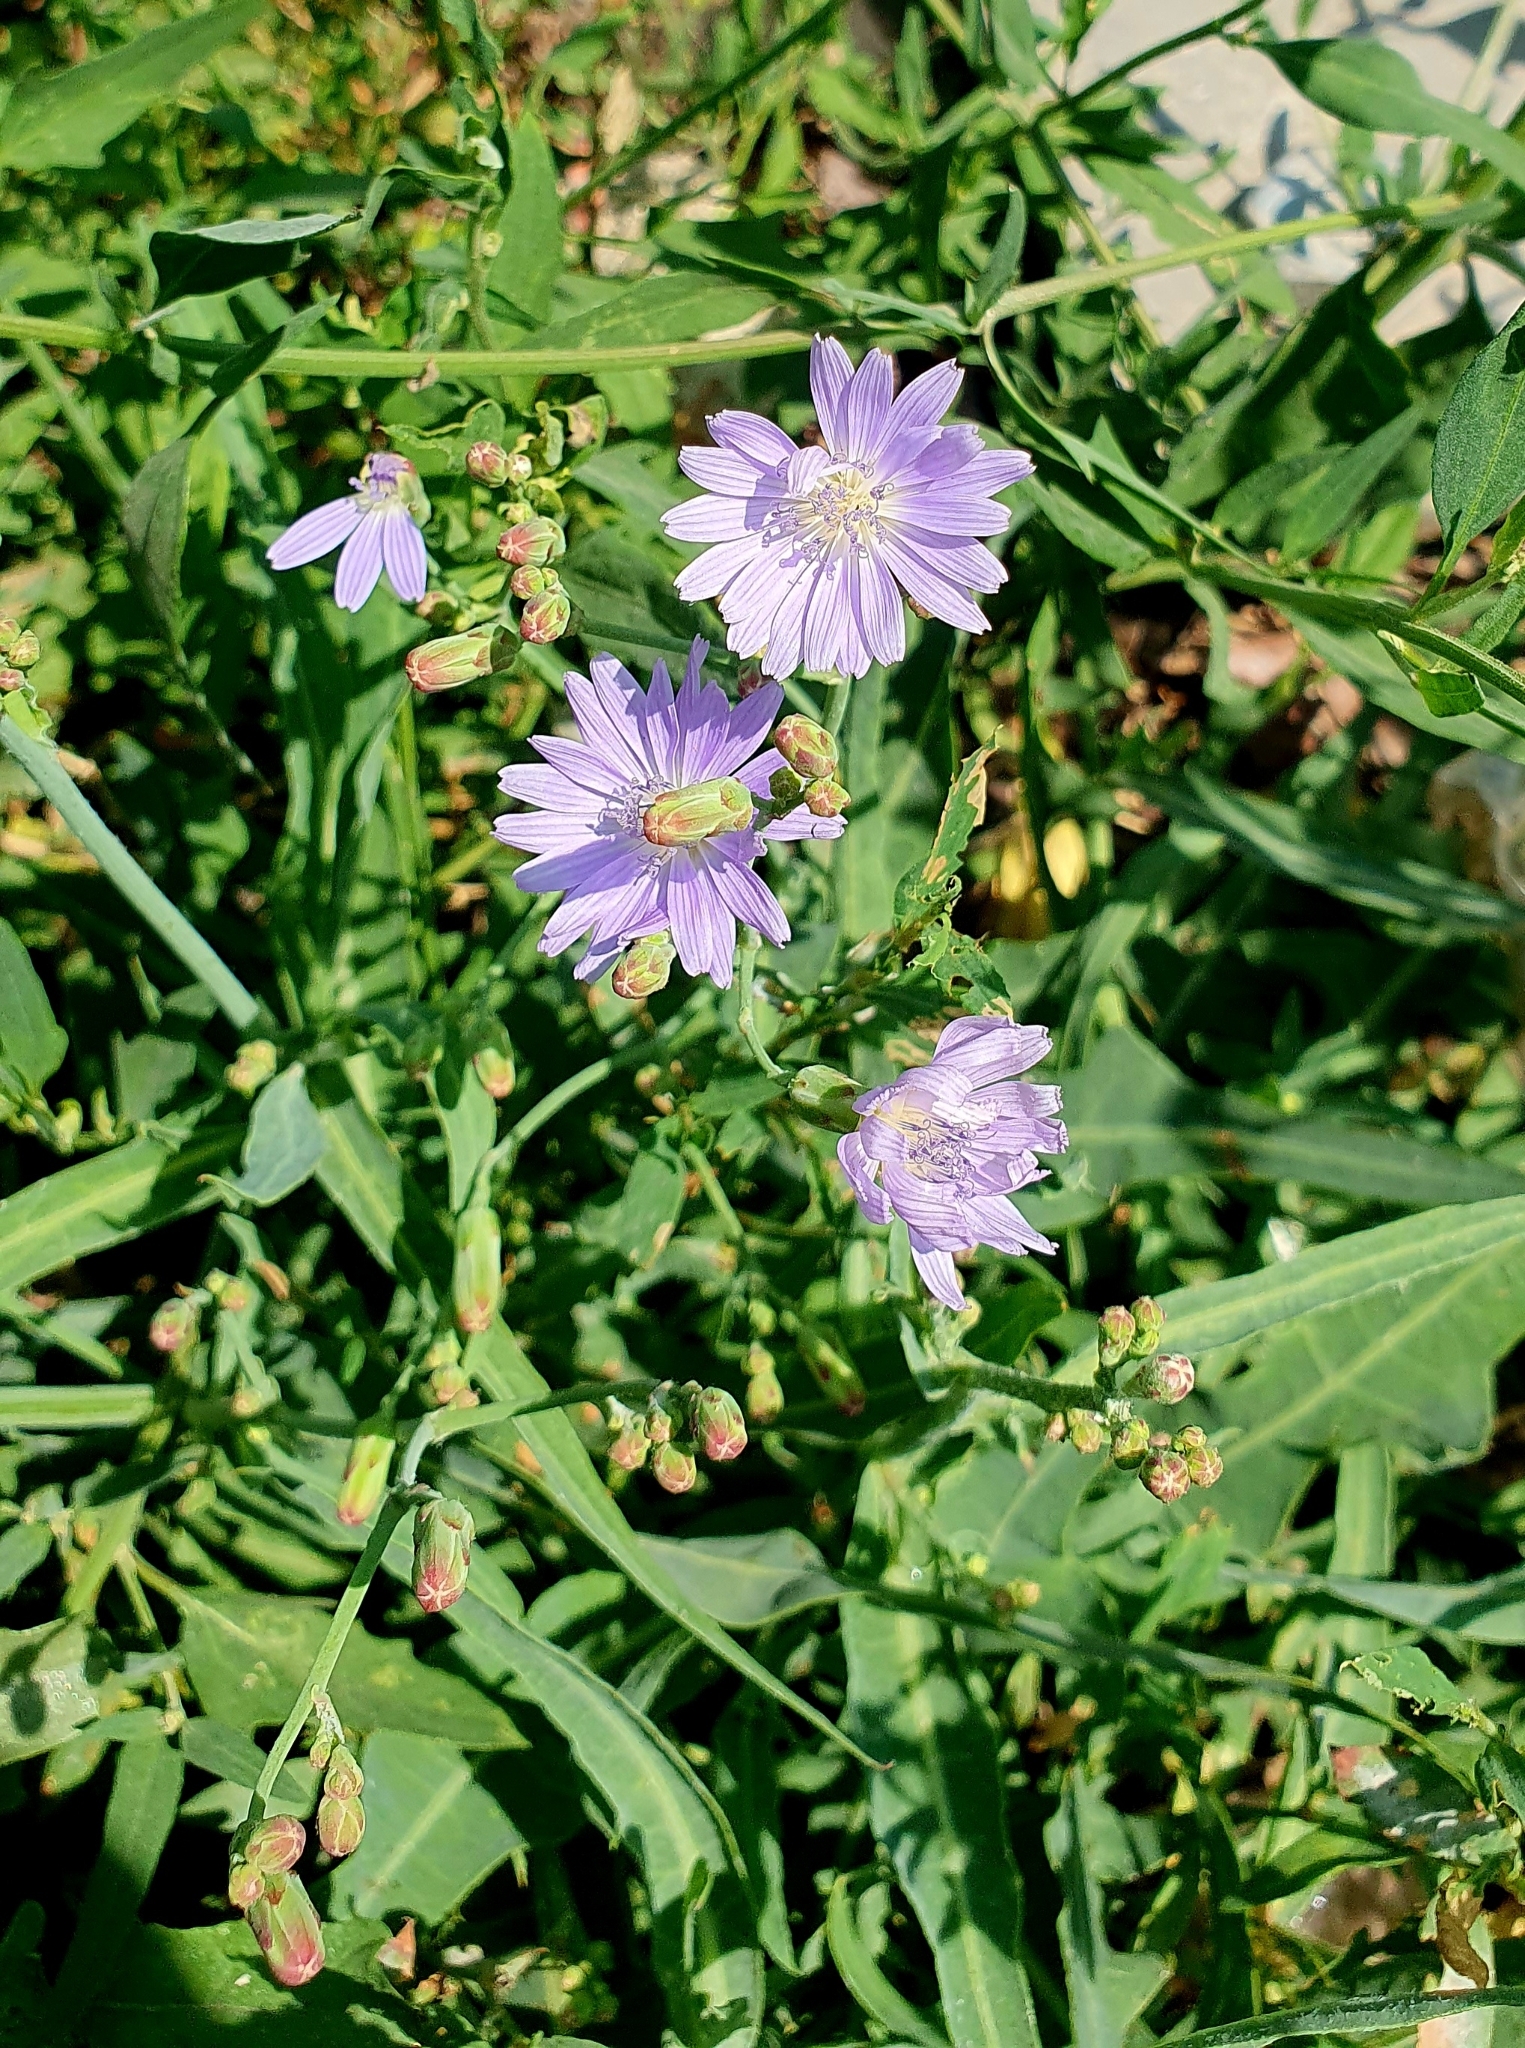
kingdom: Plantae
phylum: Tracheophyta
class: Magnoliopsida
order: Asterales
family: Asteraceae
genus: Lactuca
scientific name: Lactuca tatarica
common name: Blue lettuce
